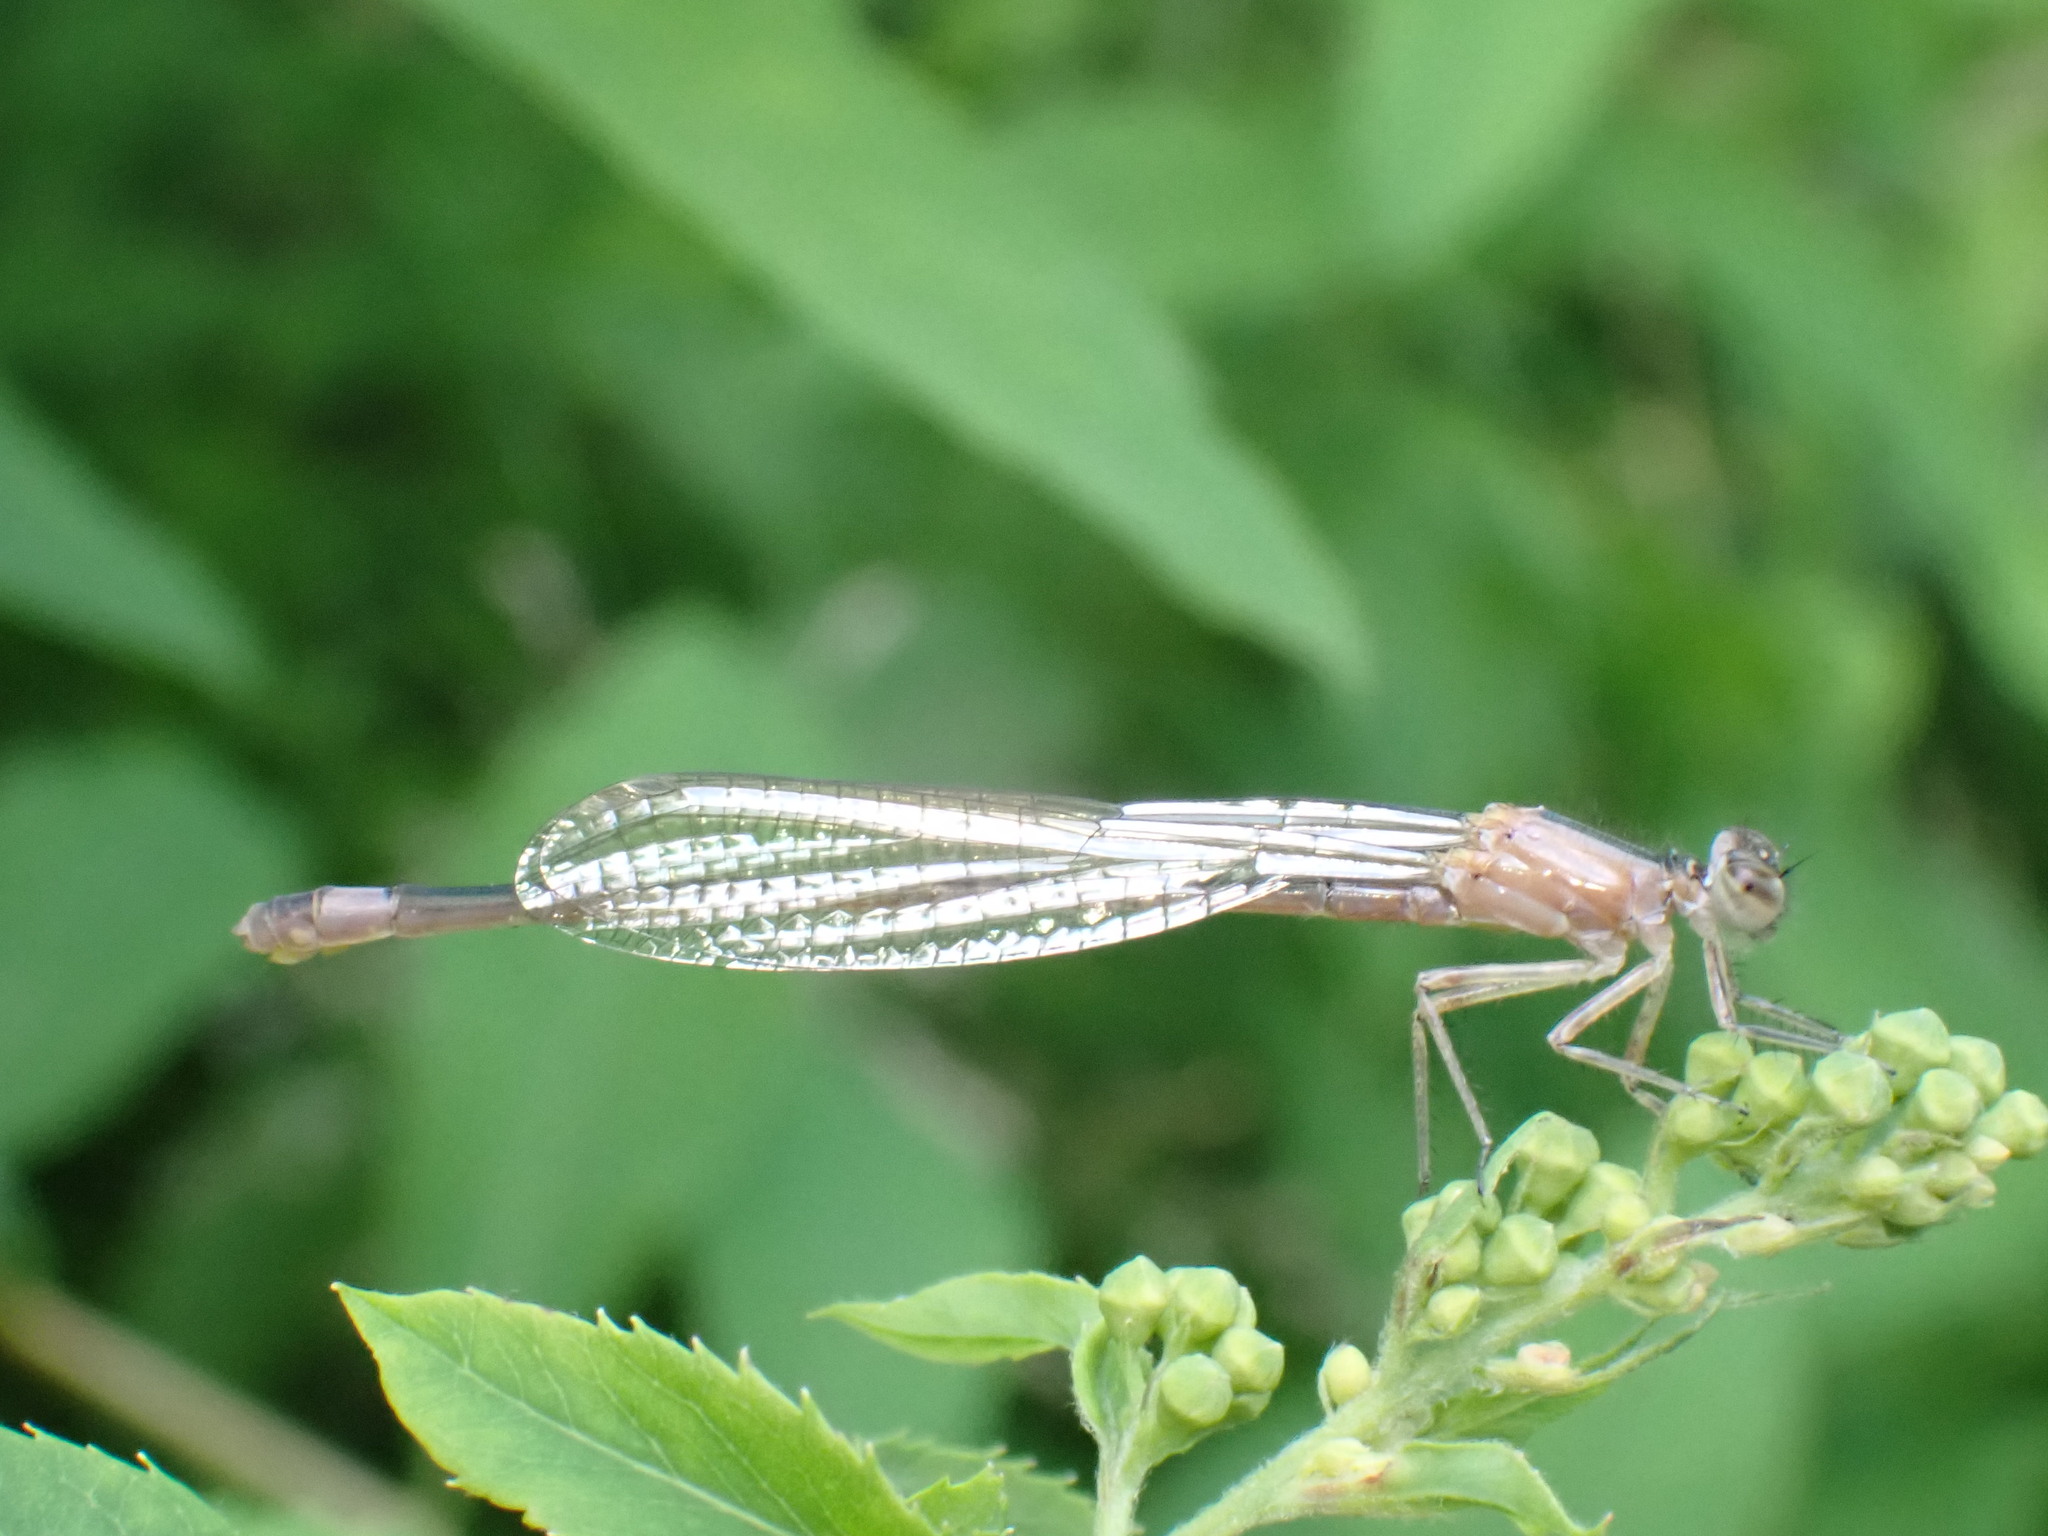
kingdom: Animalia
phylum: Arthropoda
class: Insecta
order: Odonata
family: Coenagrionidae
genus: Ischnura
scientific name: Ischnura elegans
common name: Blue-tailed damselfly
